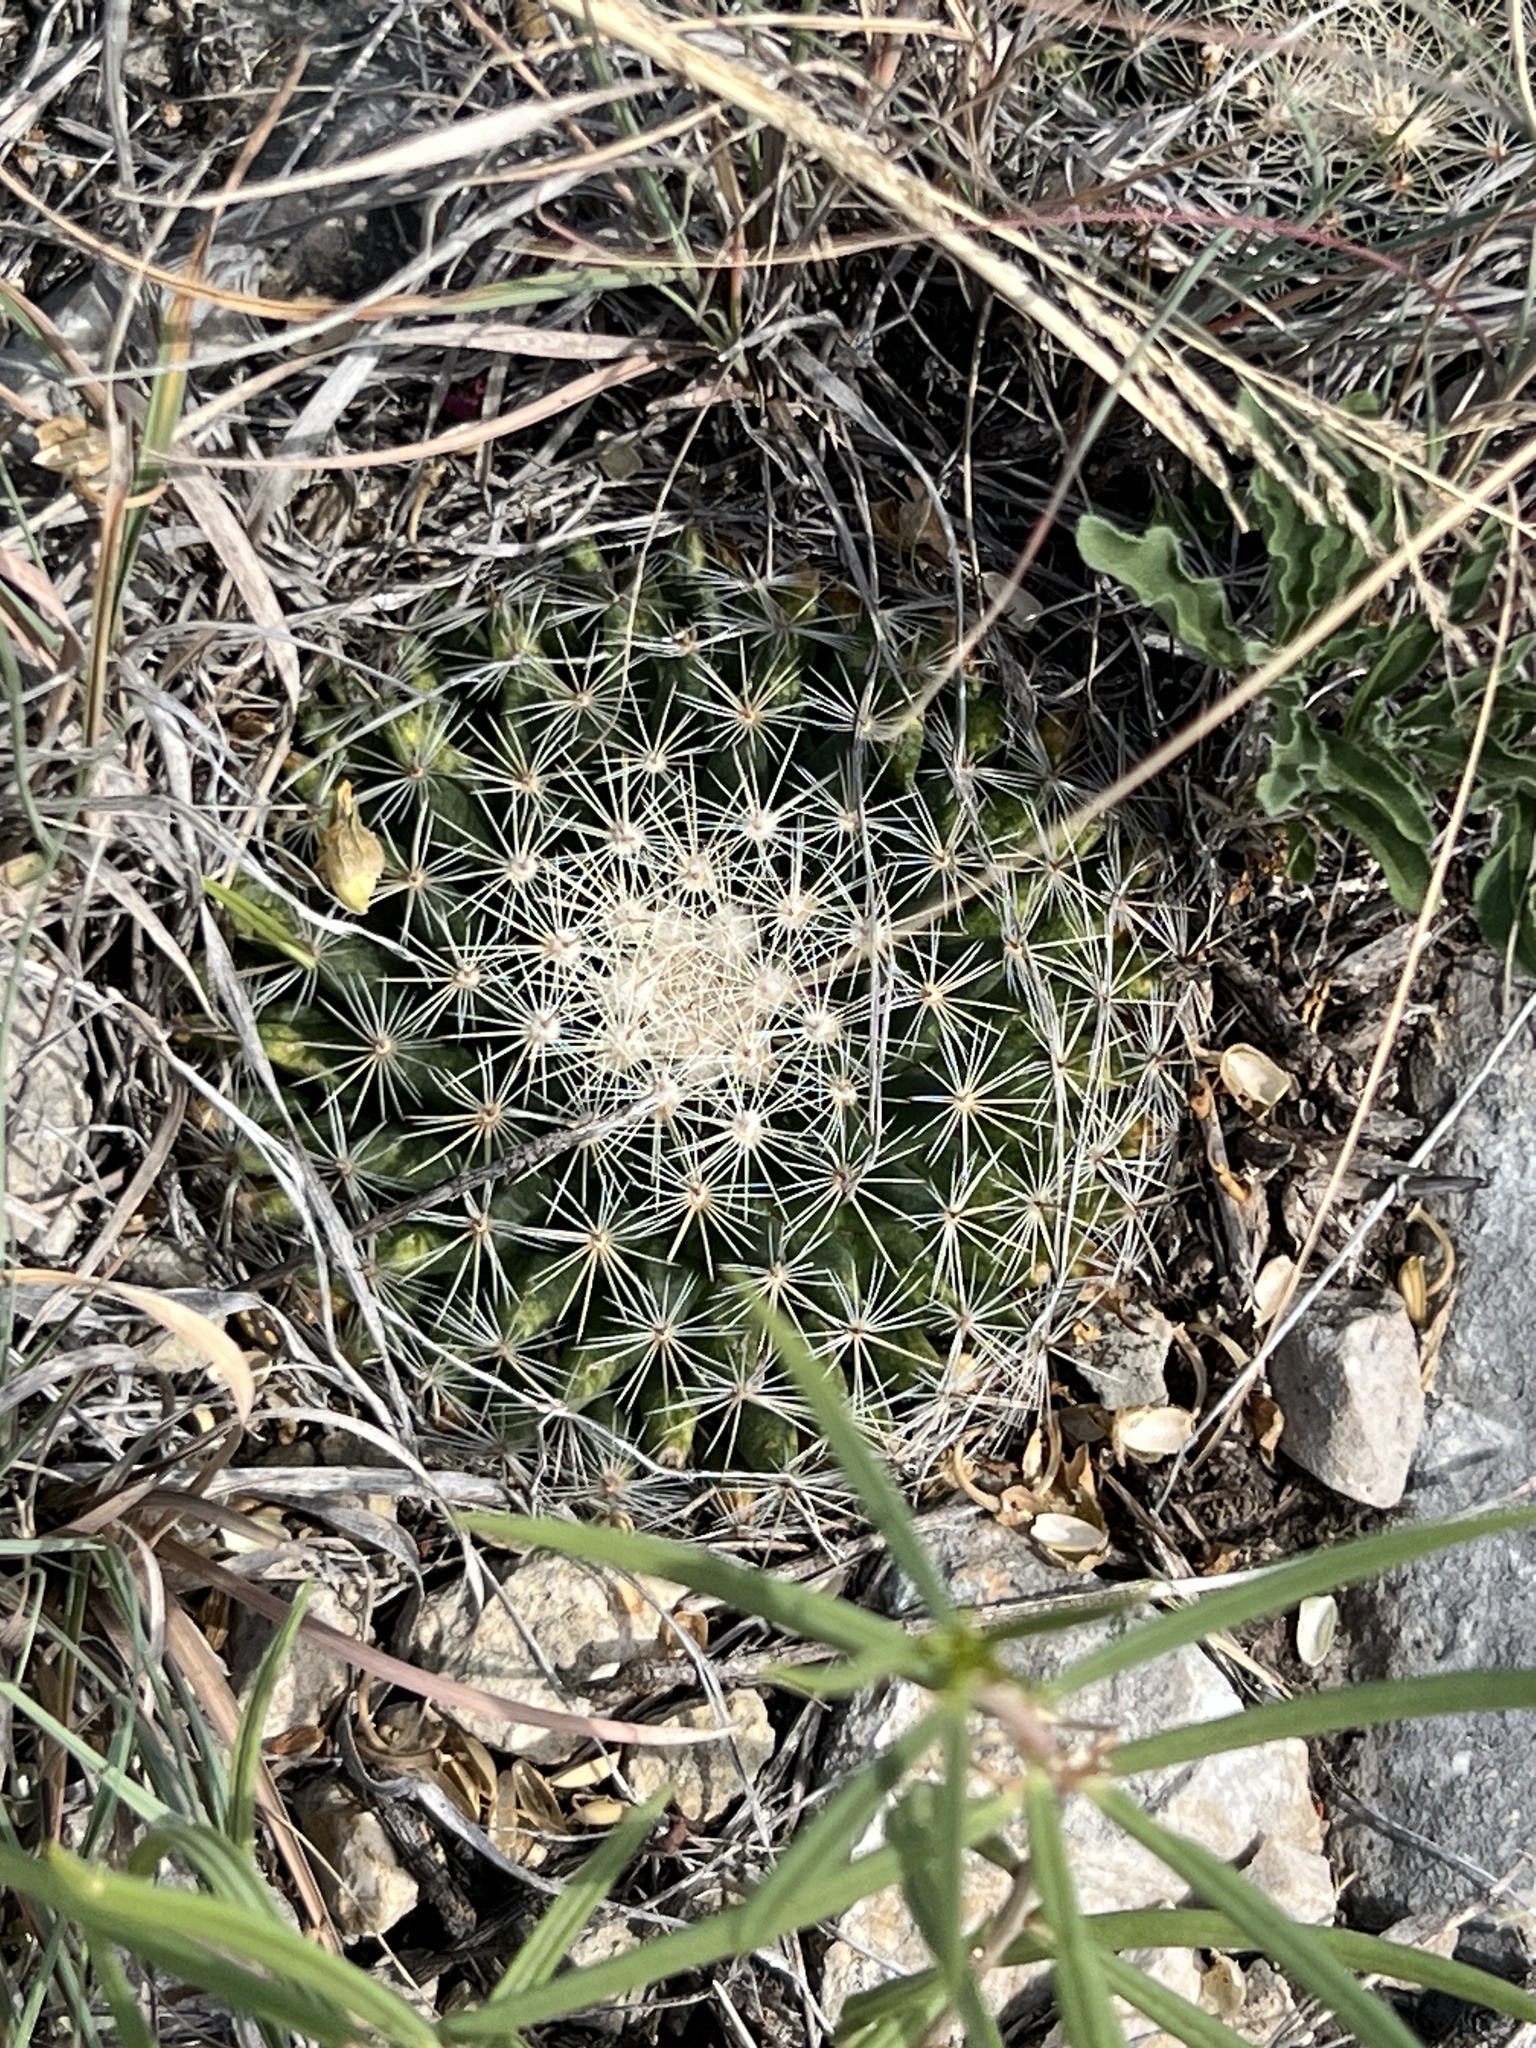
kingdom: Plantae
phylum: Tracheophyta
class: Magnoliopsida
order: Caryophyllales
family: Cactaceae
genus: Mammillaria
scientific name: Mammillaria heyderi
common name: Little nipple cactus
